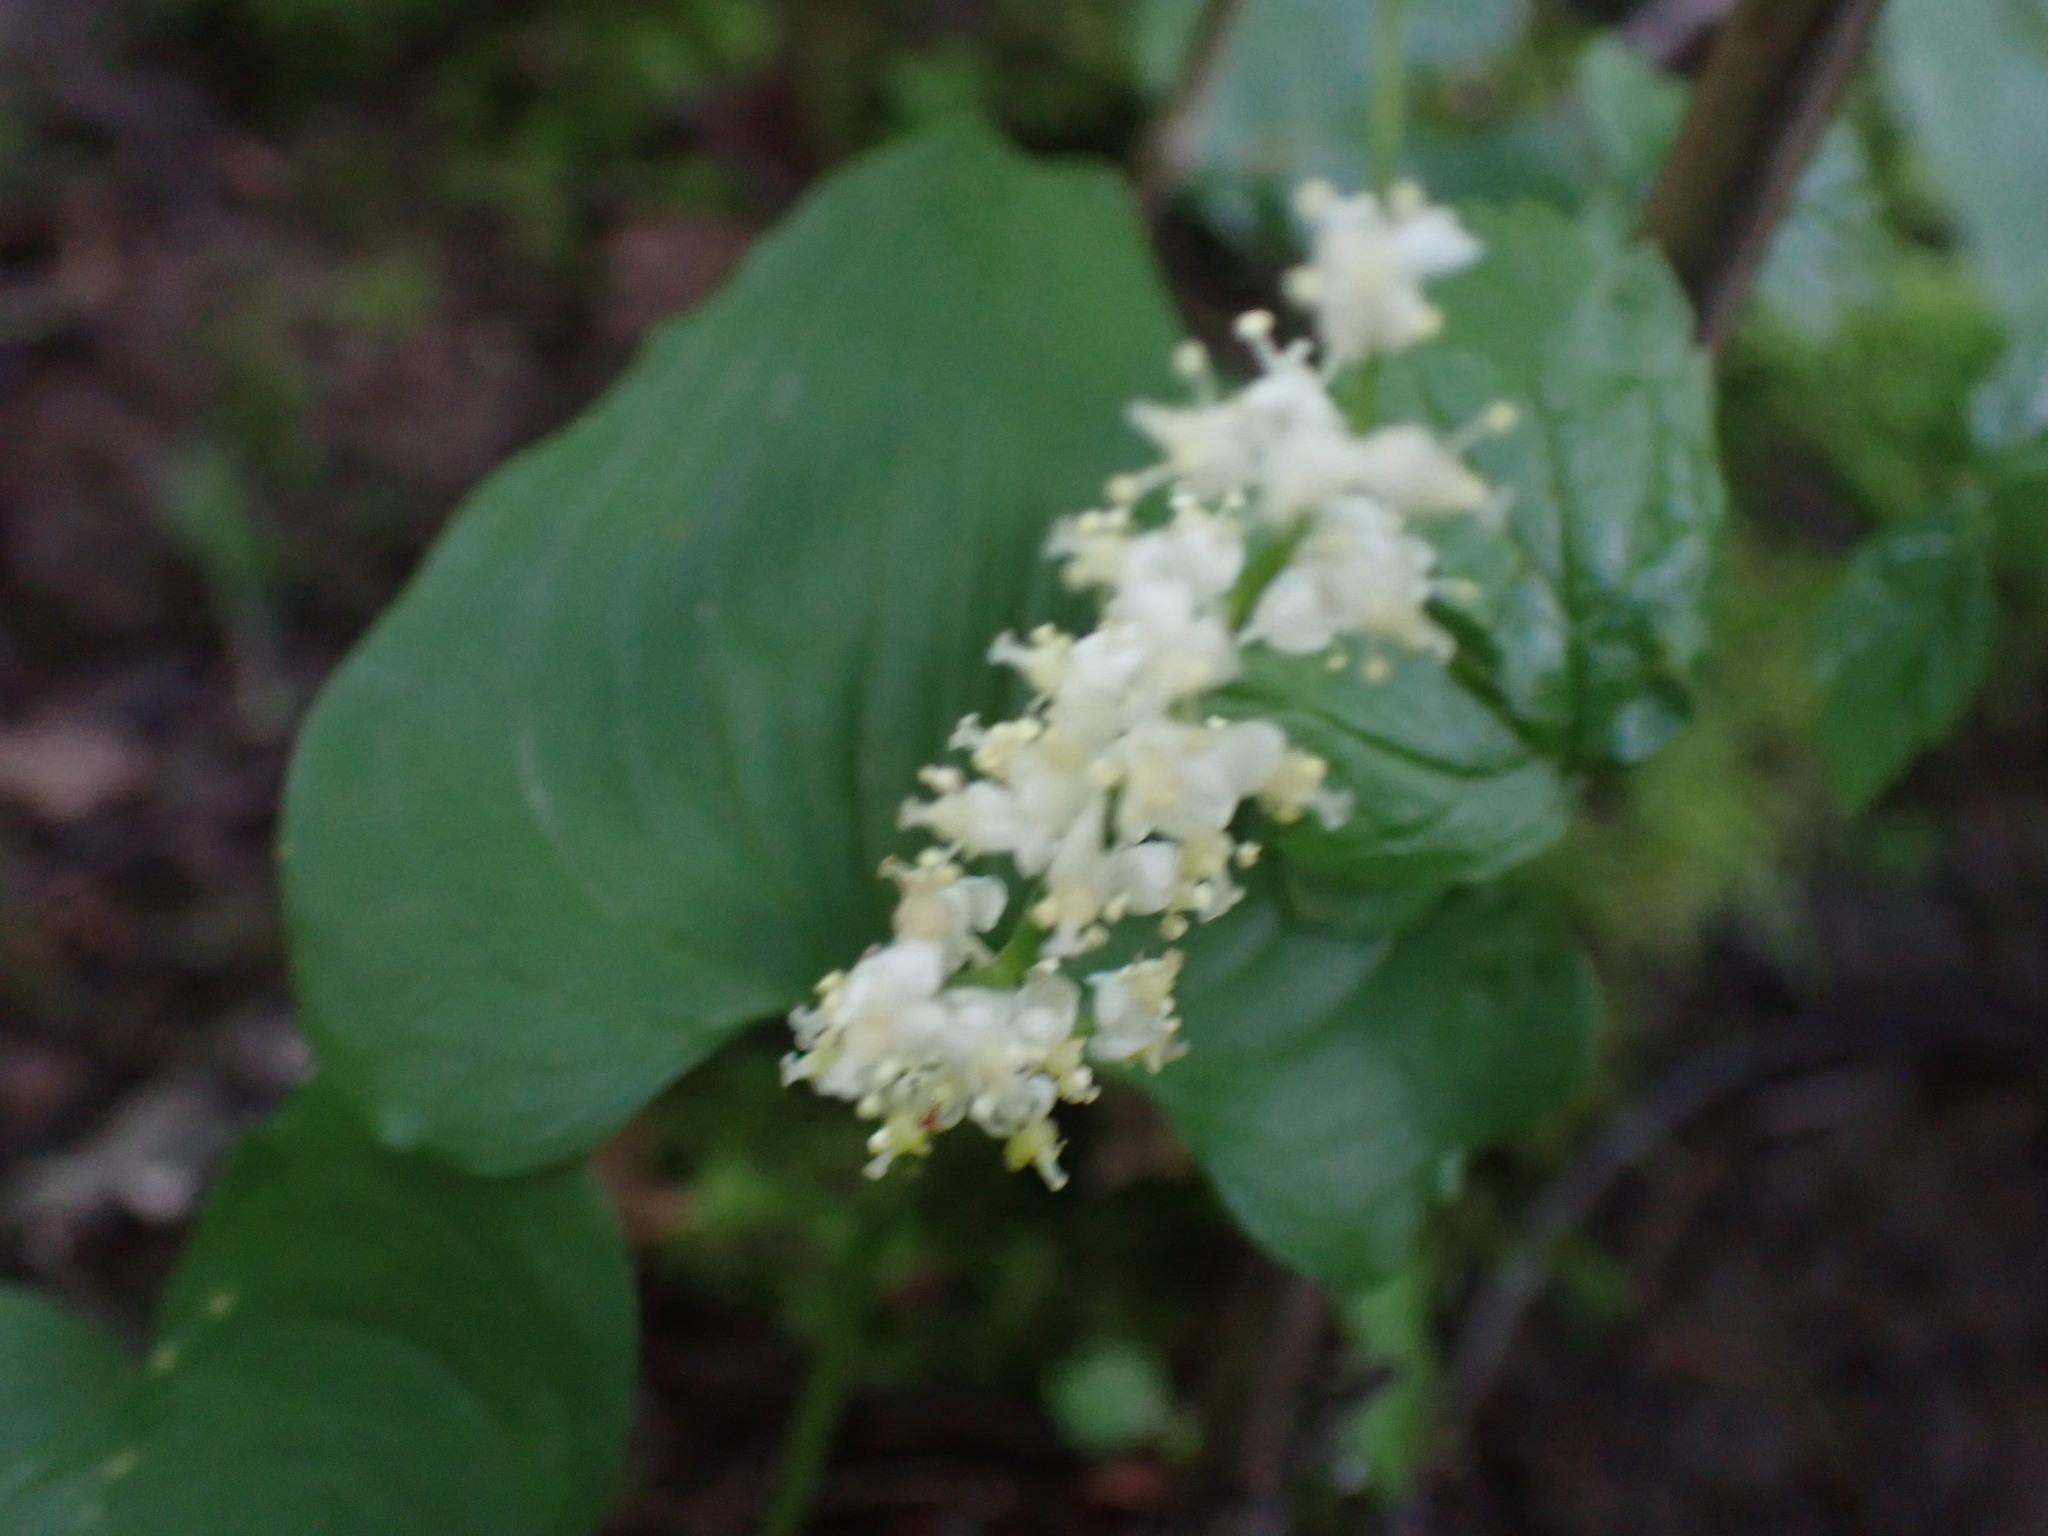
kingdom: Plantae
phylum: Tracheophyta
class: Liliopsida
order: Asparagales
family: Asparagaceae
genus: Maianthemum
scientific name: Maianthemum dilatatum
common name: False lily-of-the-valley
